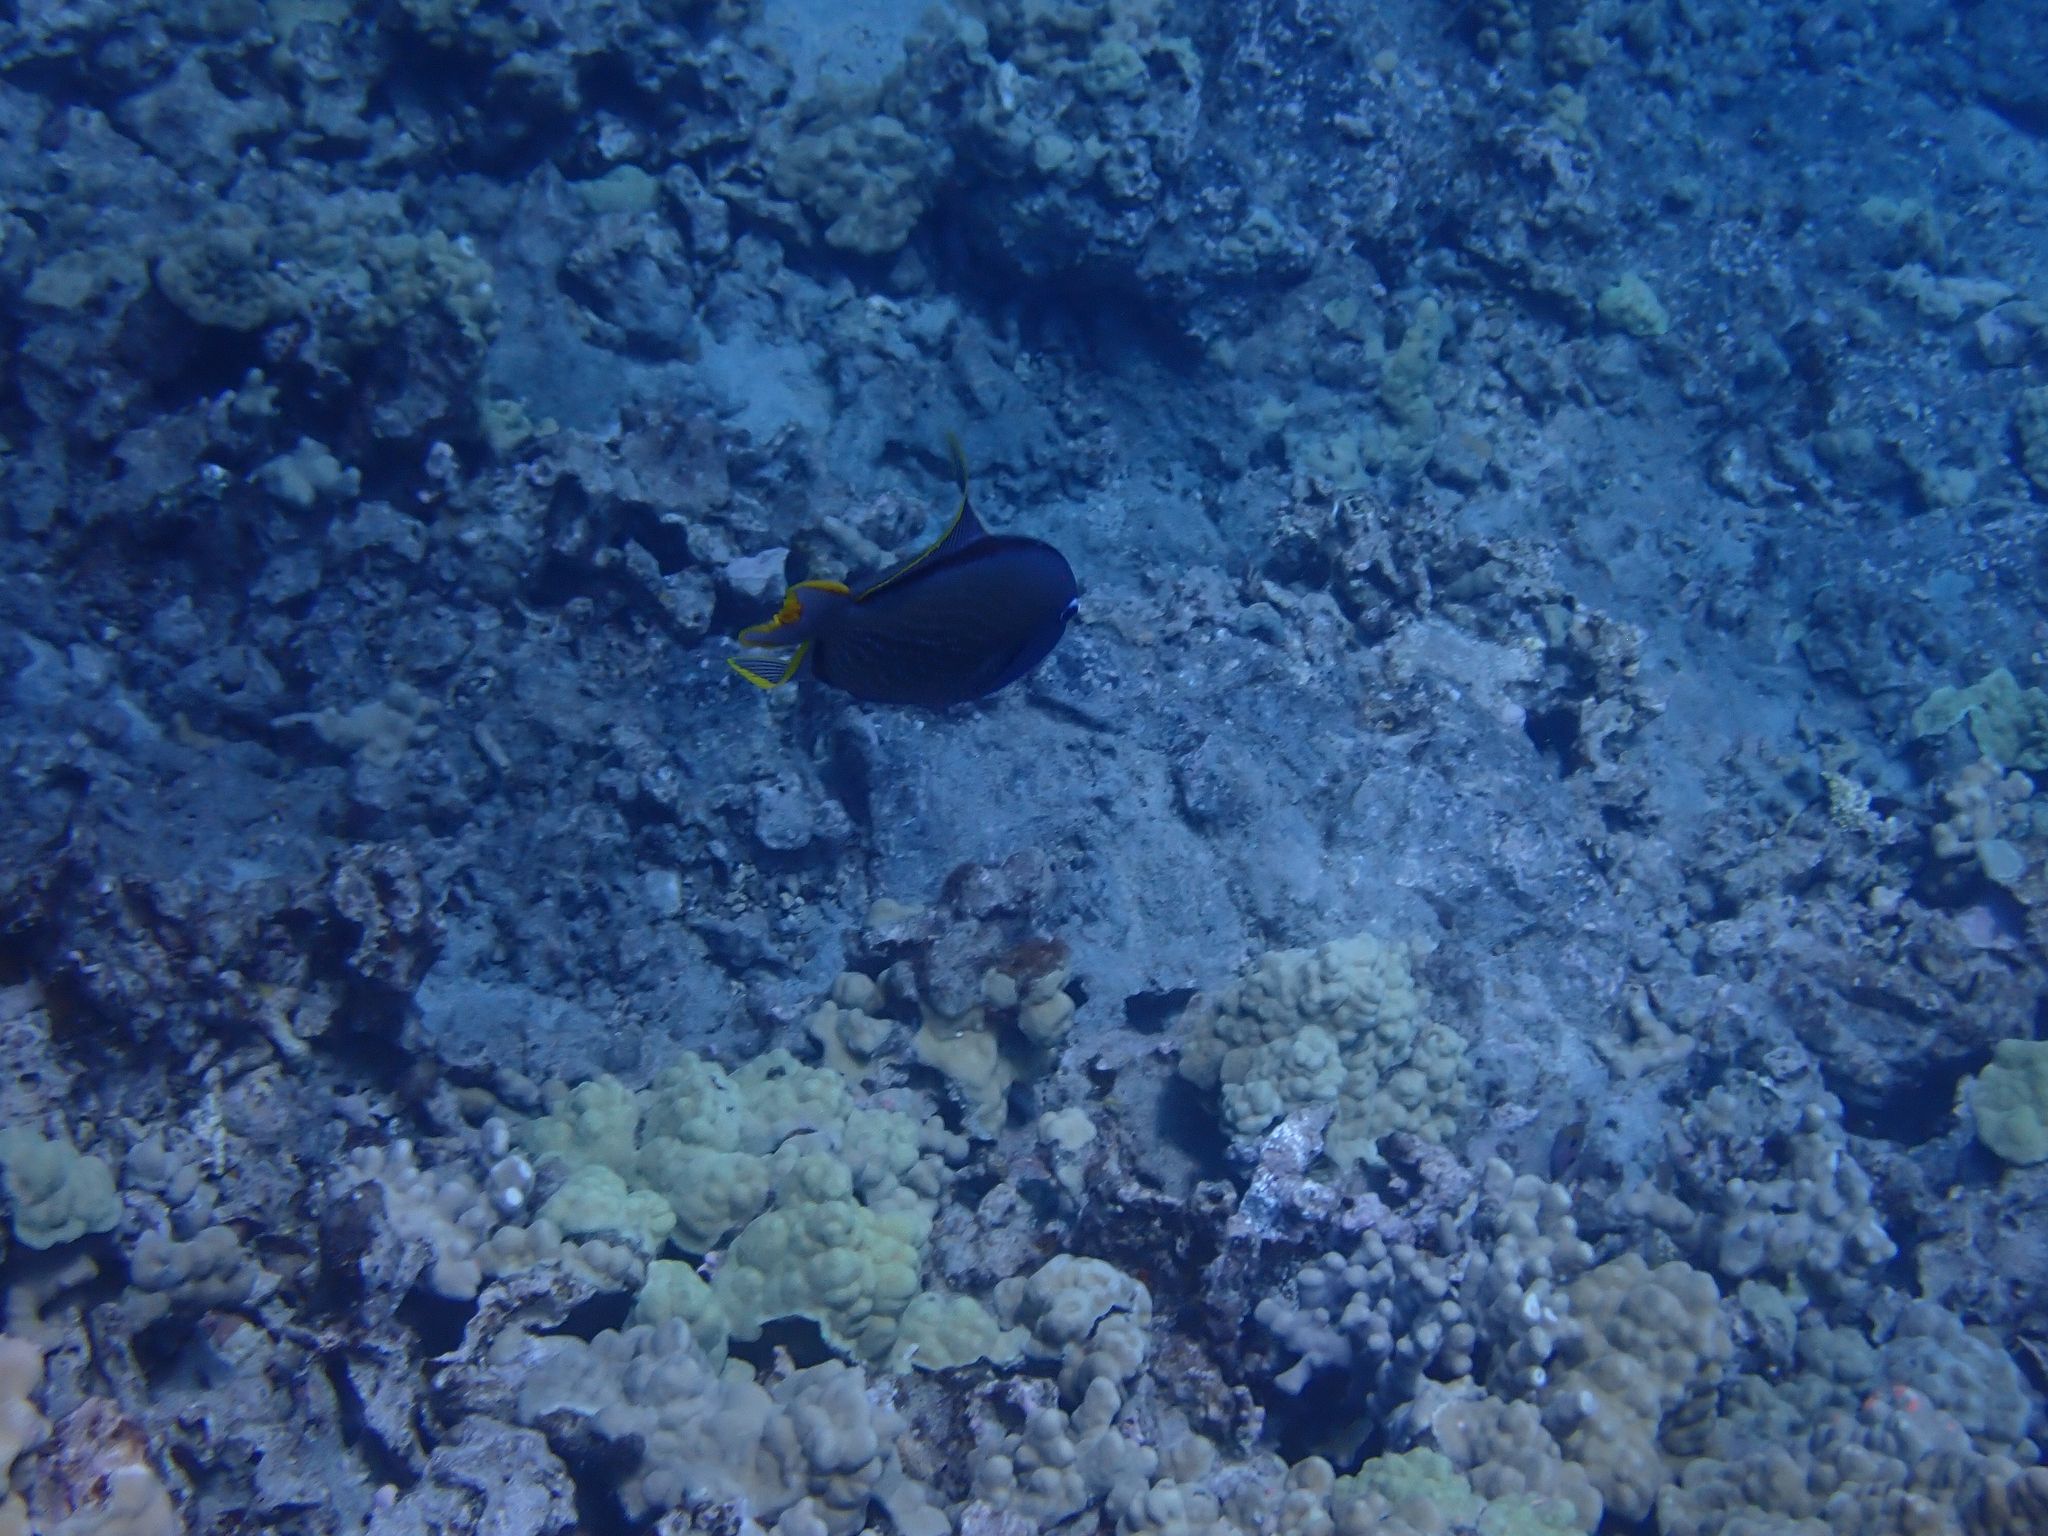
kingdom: Animalia
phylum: Chordata
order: Tetraodontiformes
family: Balistidae
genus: Xanthichthys
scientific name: Xanthichthys auromarginatus
